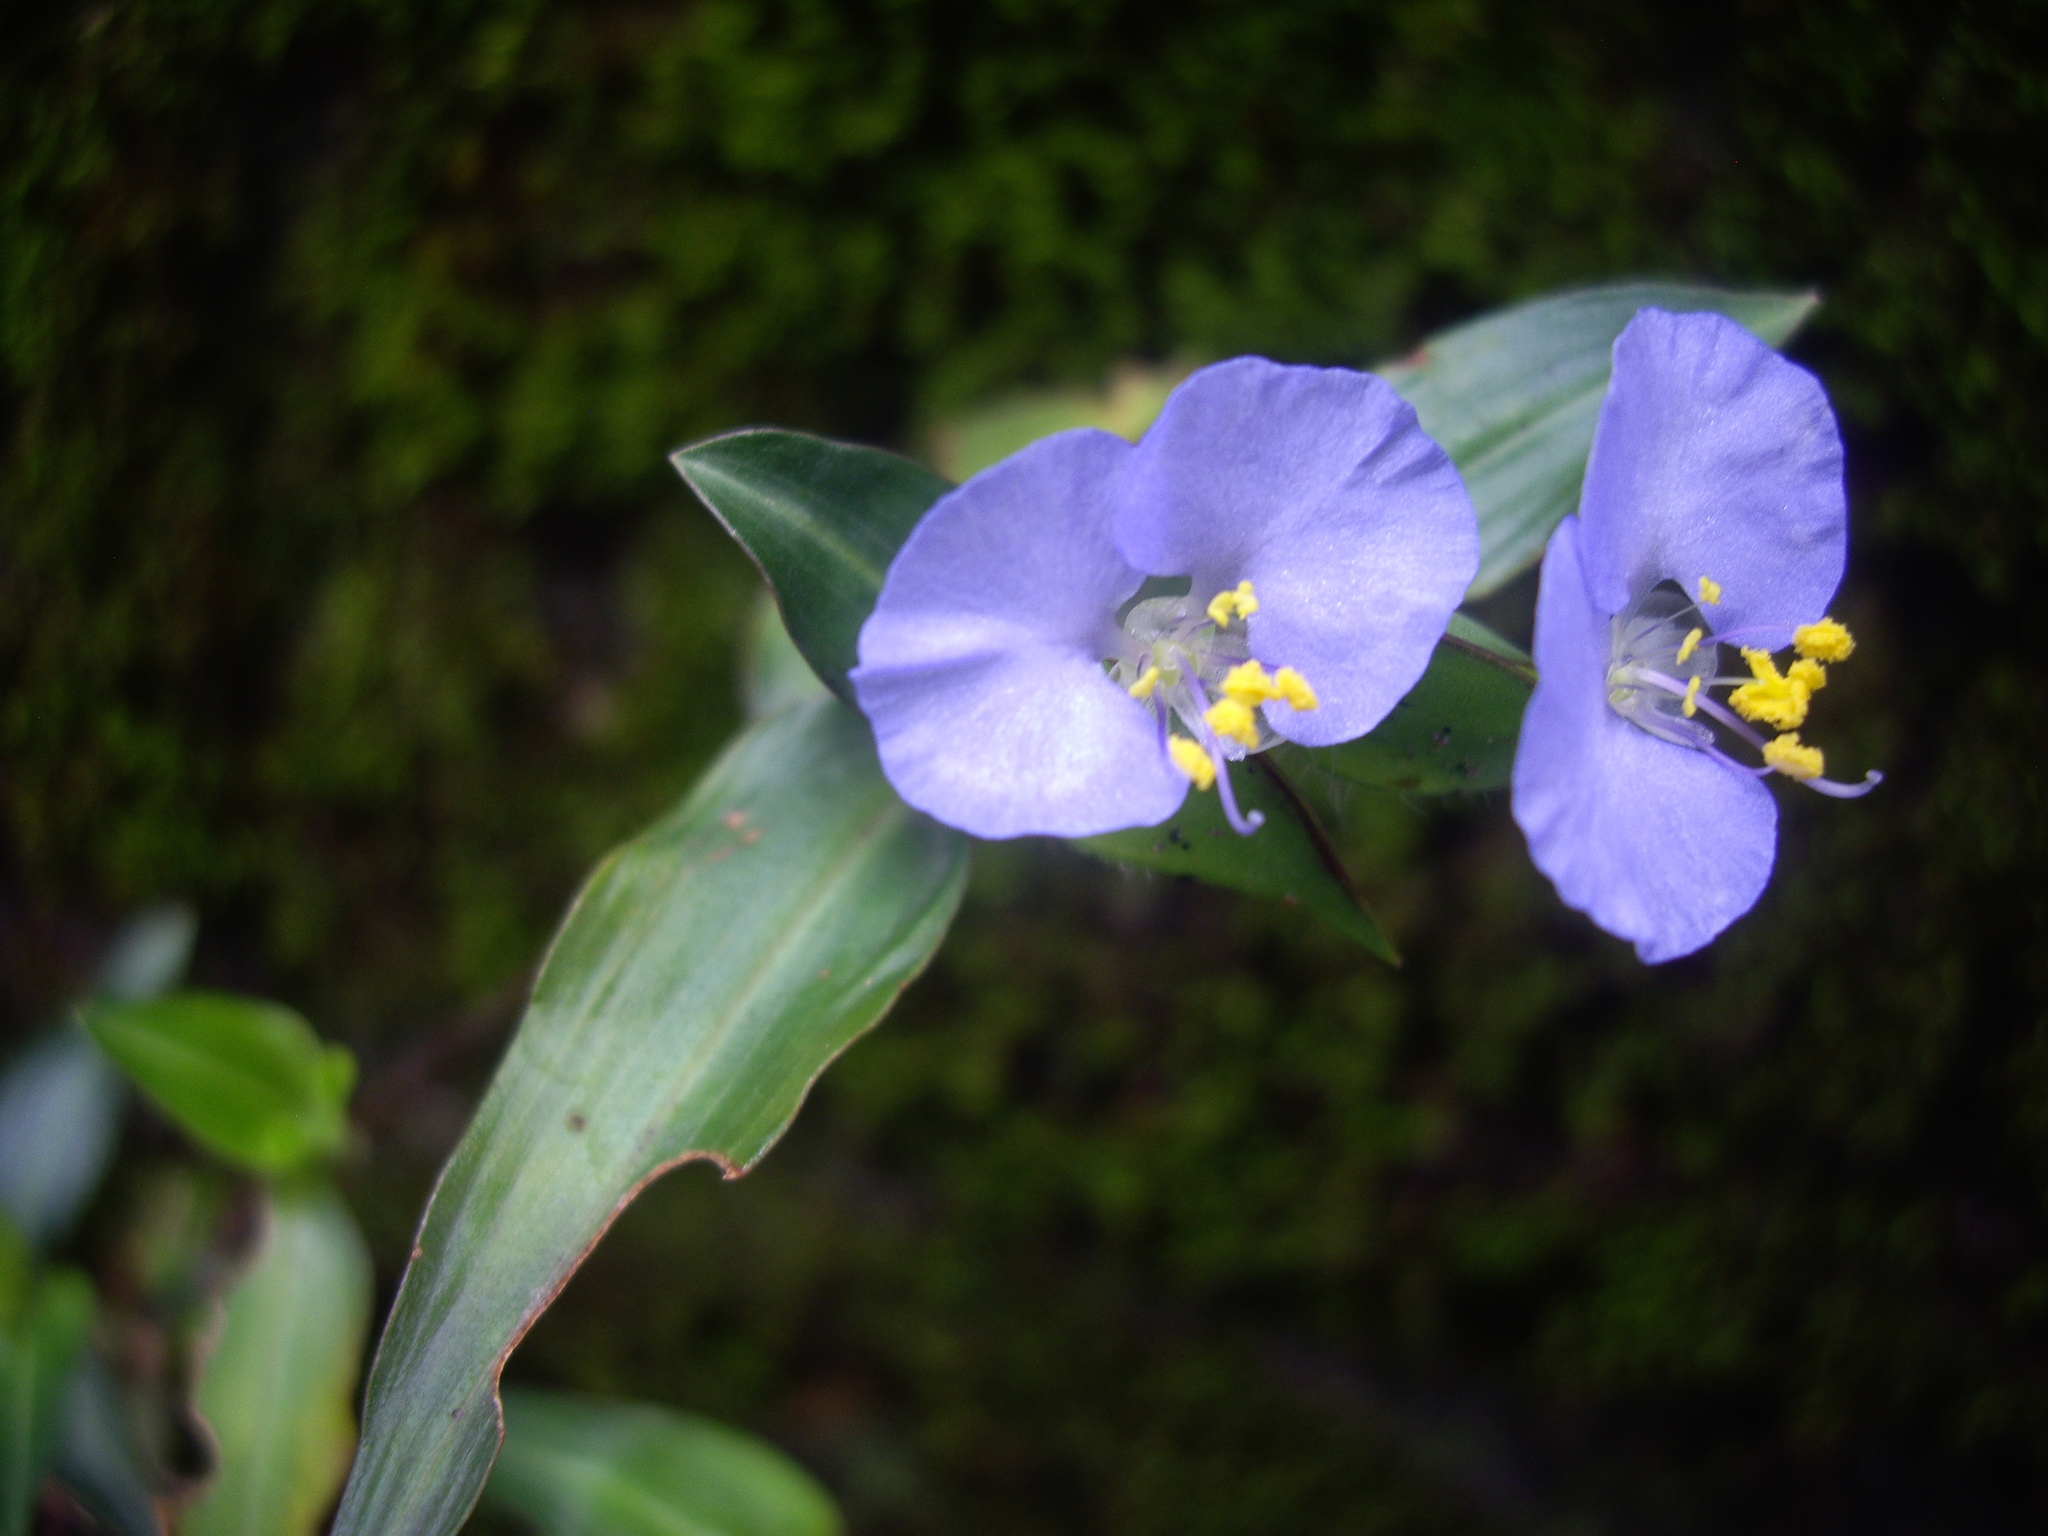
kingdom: Plantae
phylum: Tracheophyta
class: Liliopsida
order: Commelinales
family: Commelinaceae
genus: Commelina
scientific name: Commelina auriculata
